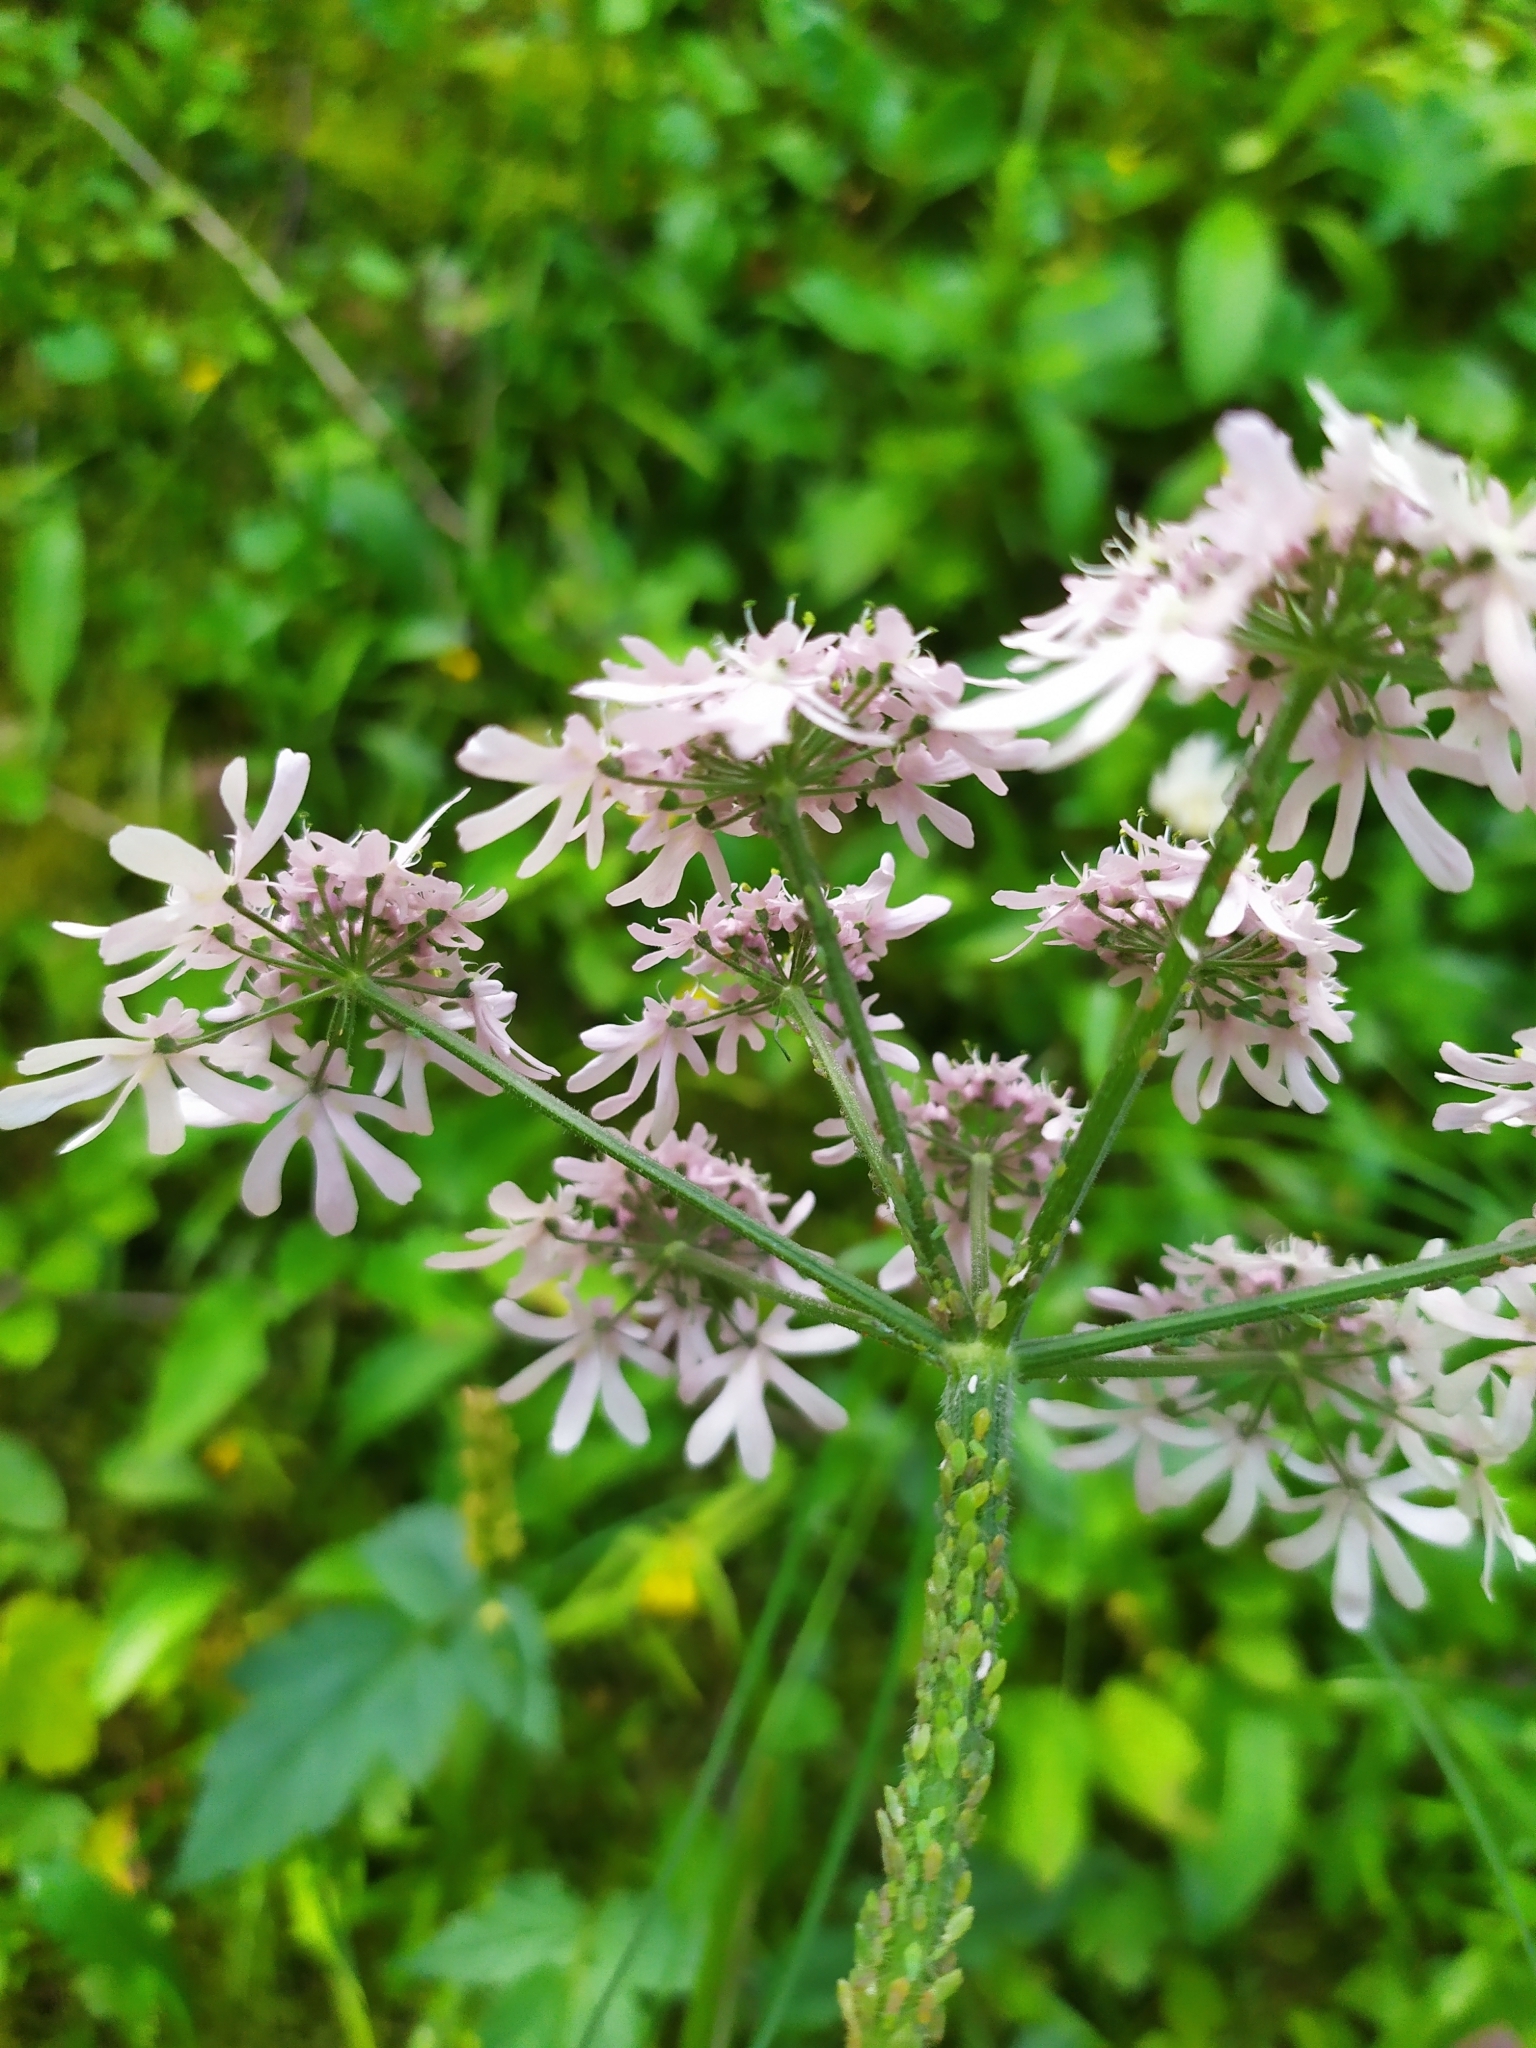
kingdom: Plantae
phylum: Tracheophyta
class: Magnoliopsida
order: Apiales
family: Apiaceae
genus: Heracleum
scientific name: Heracleum austriacum
